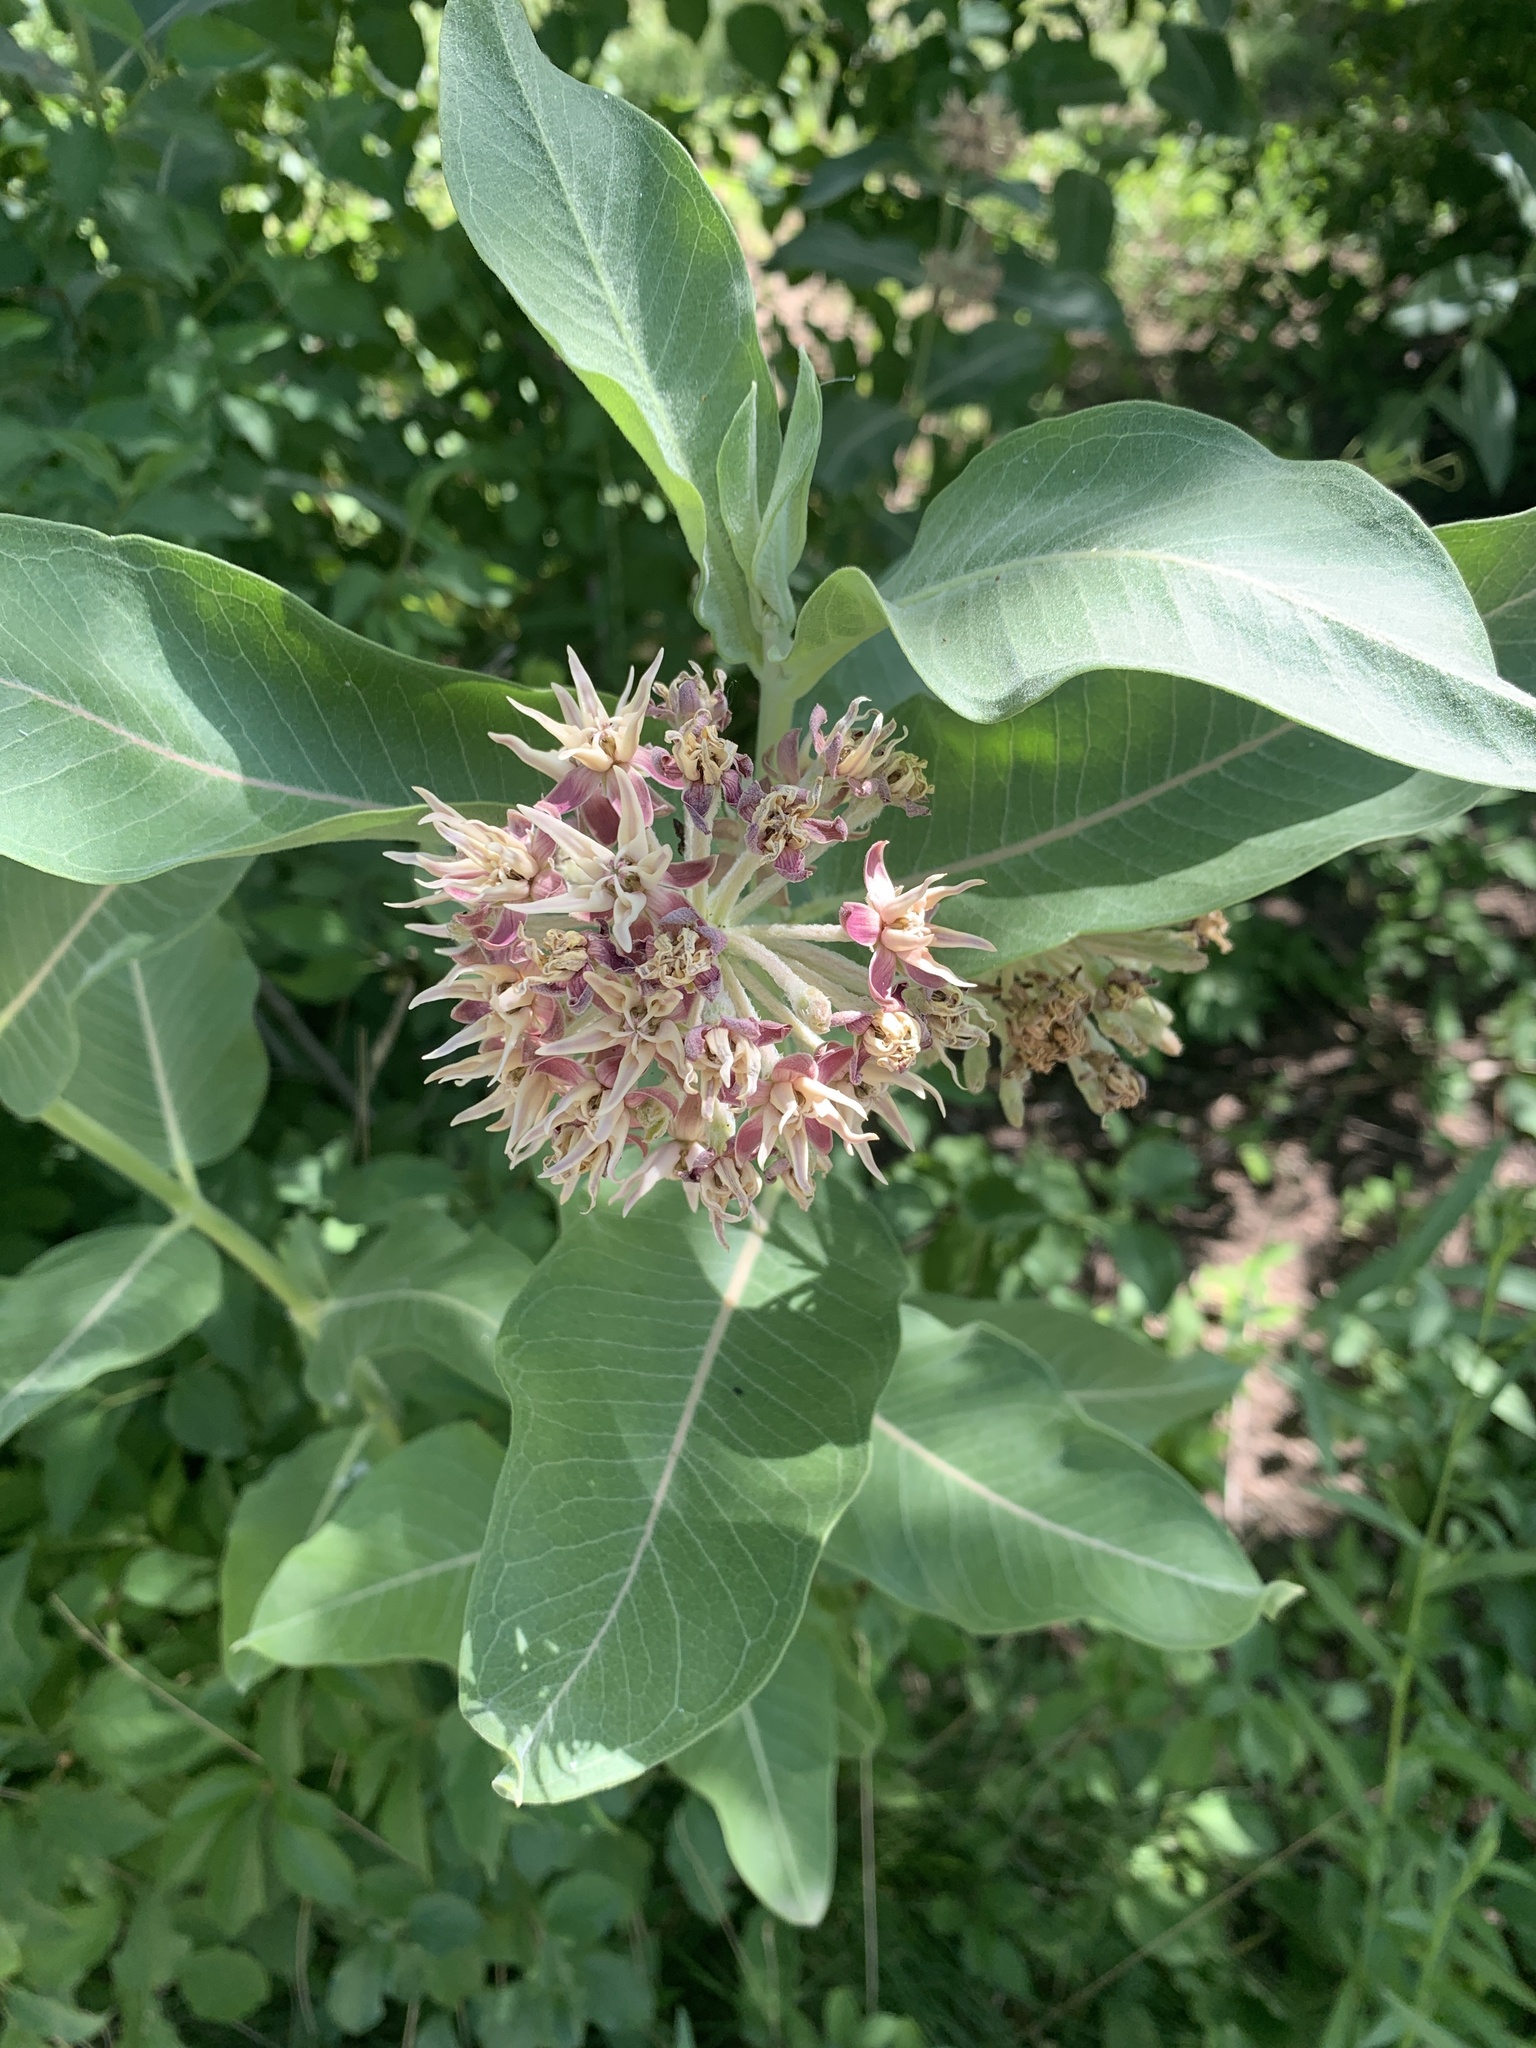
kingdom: Plantae
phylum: Tracheophyta
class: Magnoliopsida
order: Gentianales
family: Apocynaceae
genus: Asclepias
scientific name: Asclepias speciosa
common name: Showy milkweed
